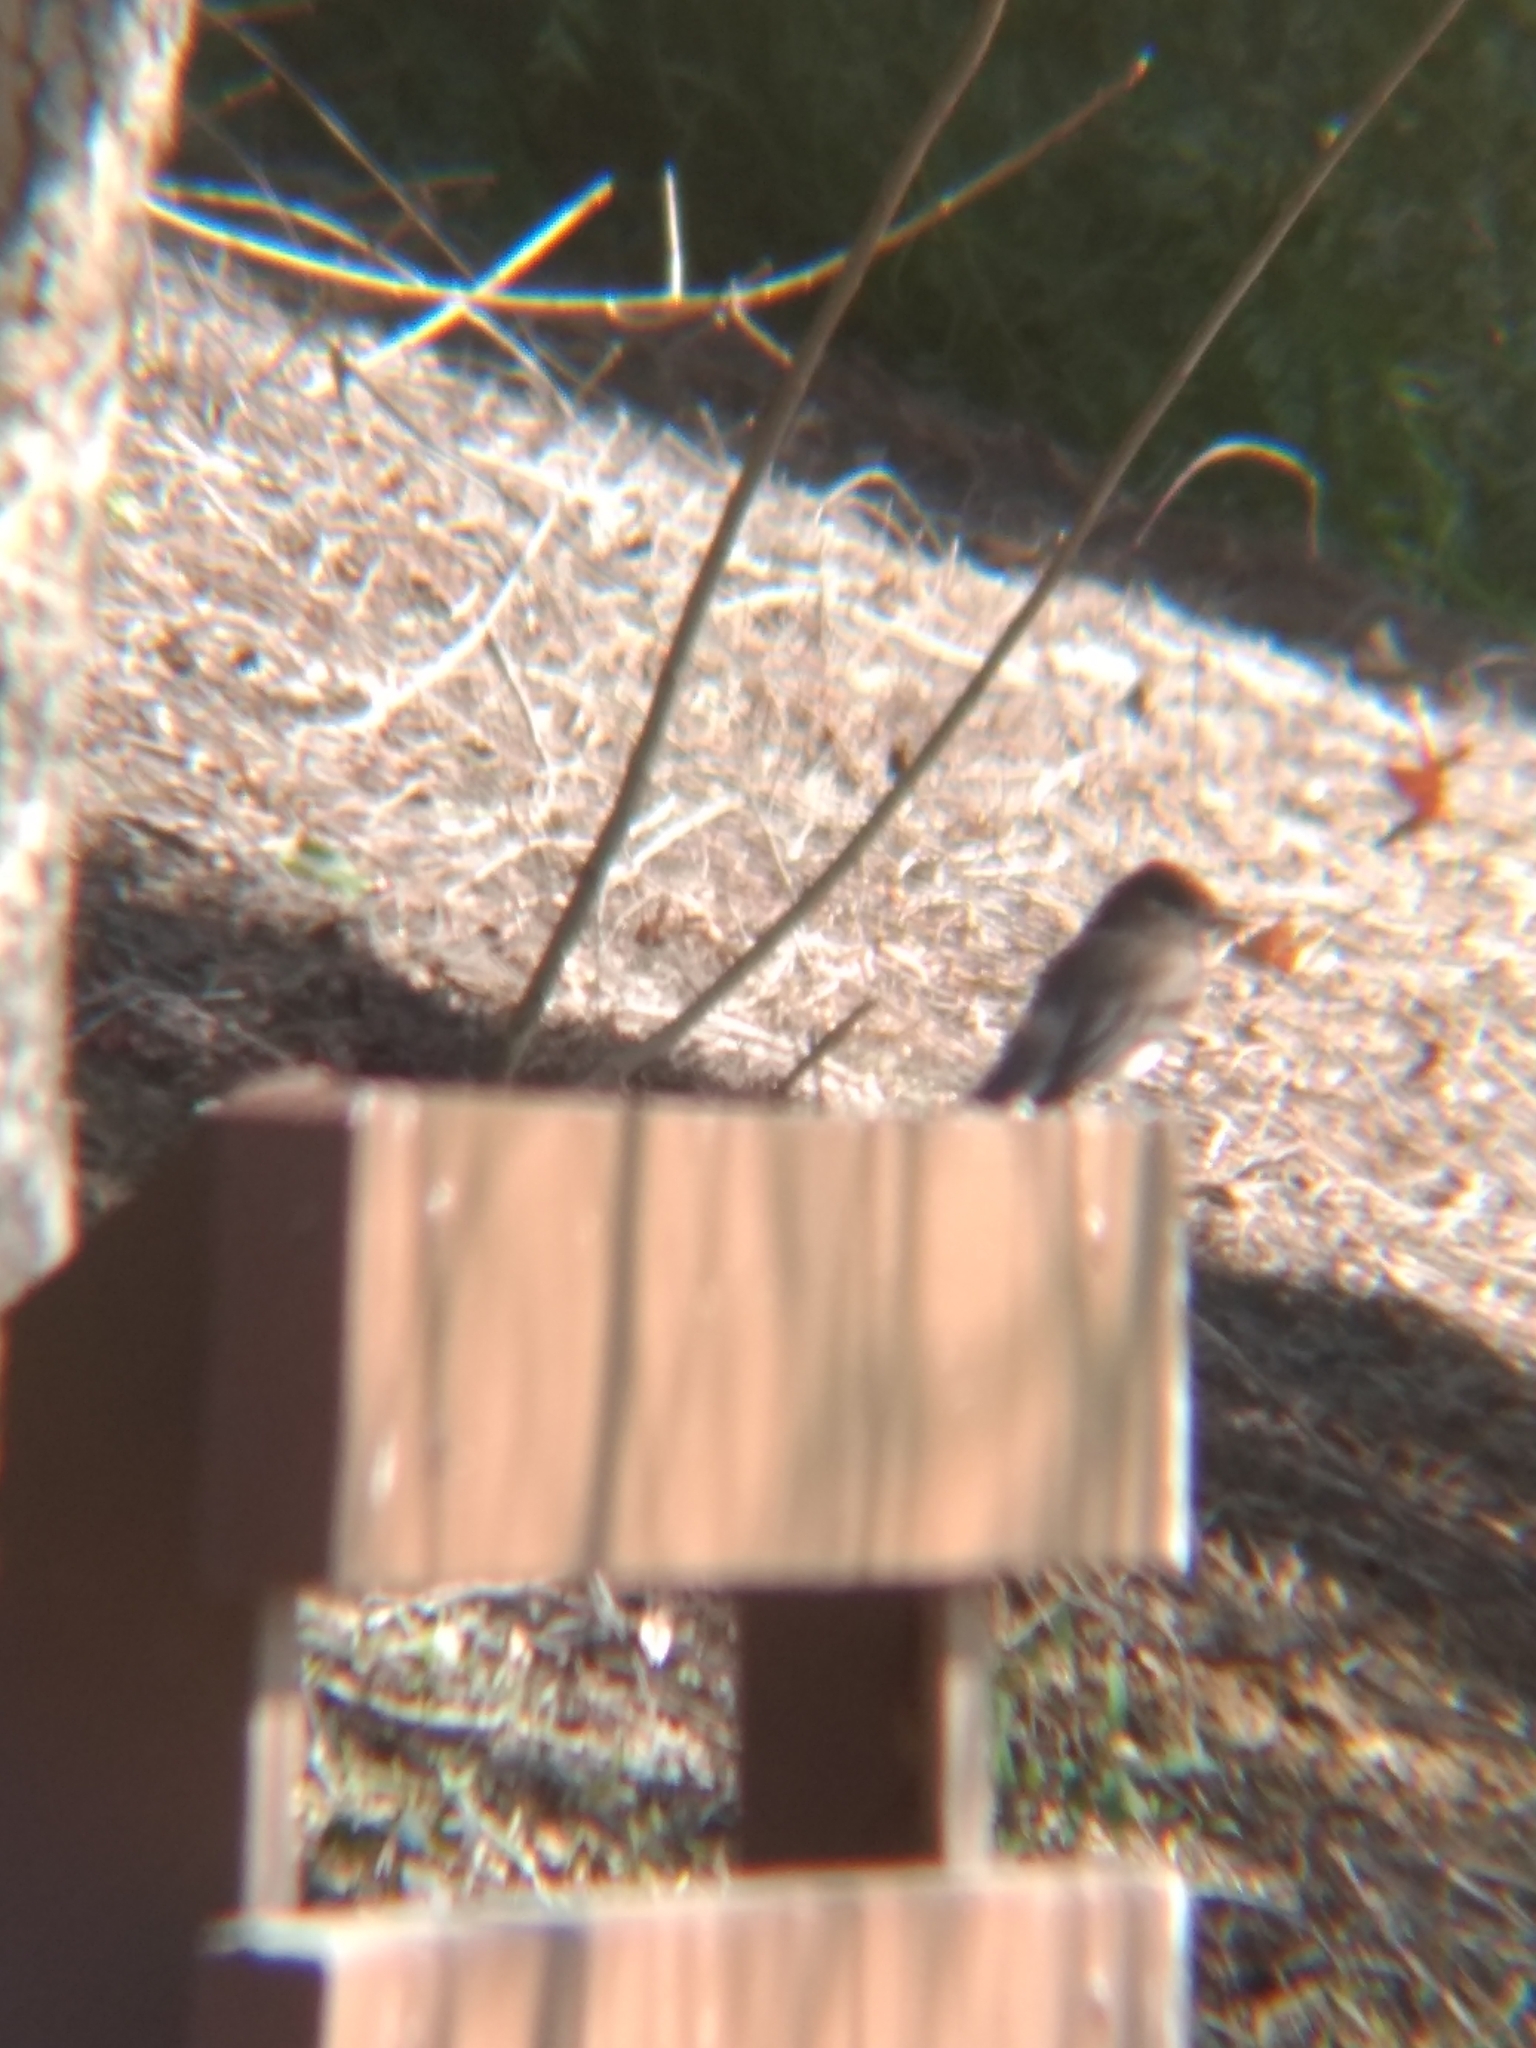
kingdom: Animalia
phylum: Chordata
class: Aves
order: Passeriformes
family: Tyrannidae
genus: Sayornis
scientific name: Sayornis nigricans
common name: Black phoebe
